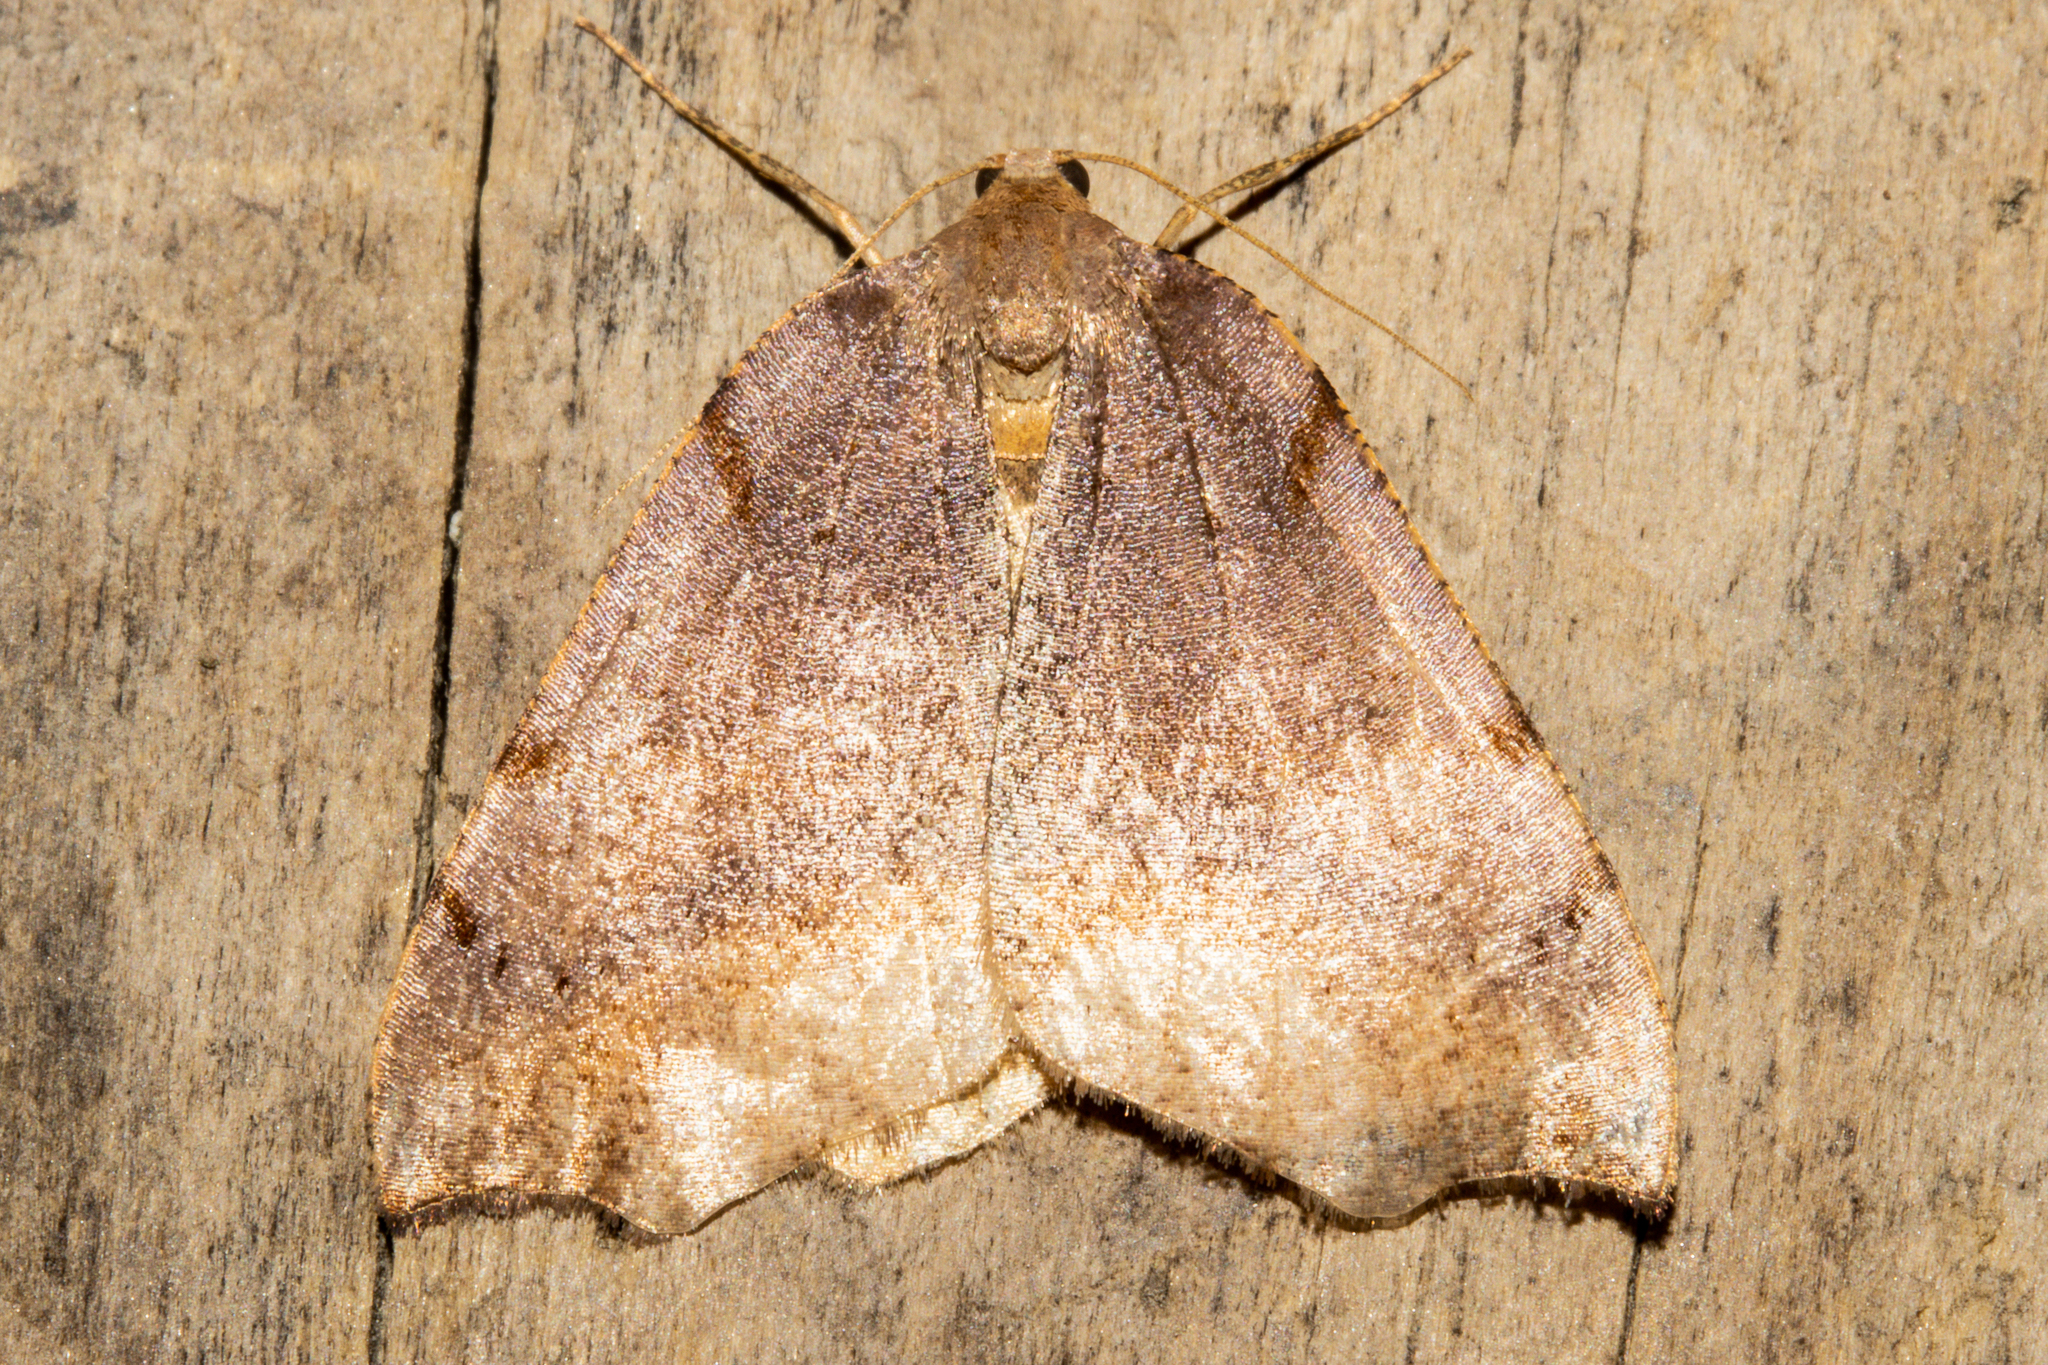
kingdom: Animalia
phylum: Arthropoda
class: Insecta
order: Lepidoptera
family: Geometridae
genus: Sestra
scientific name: Sestra flexata
